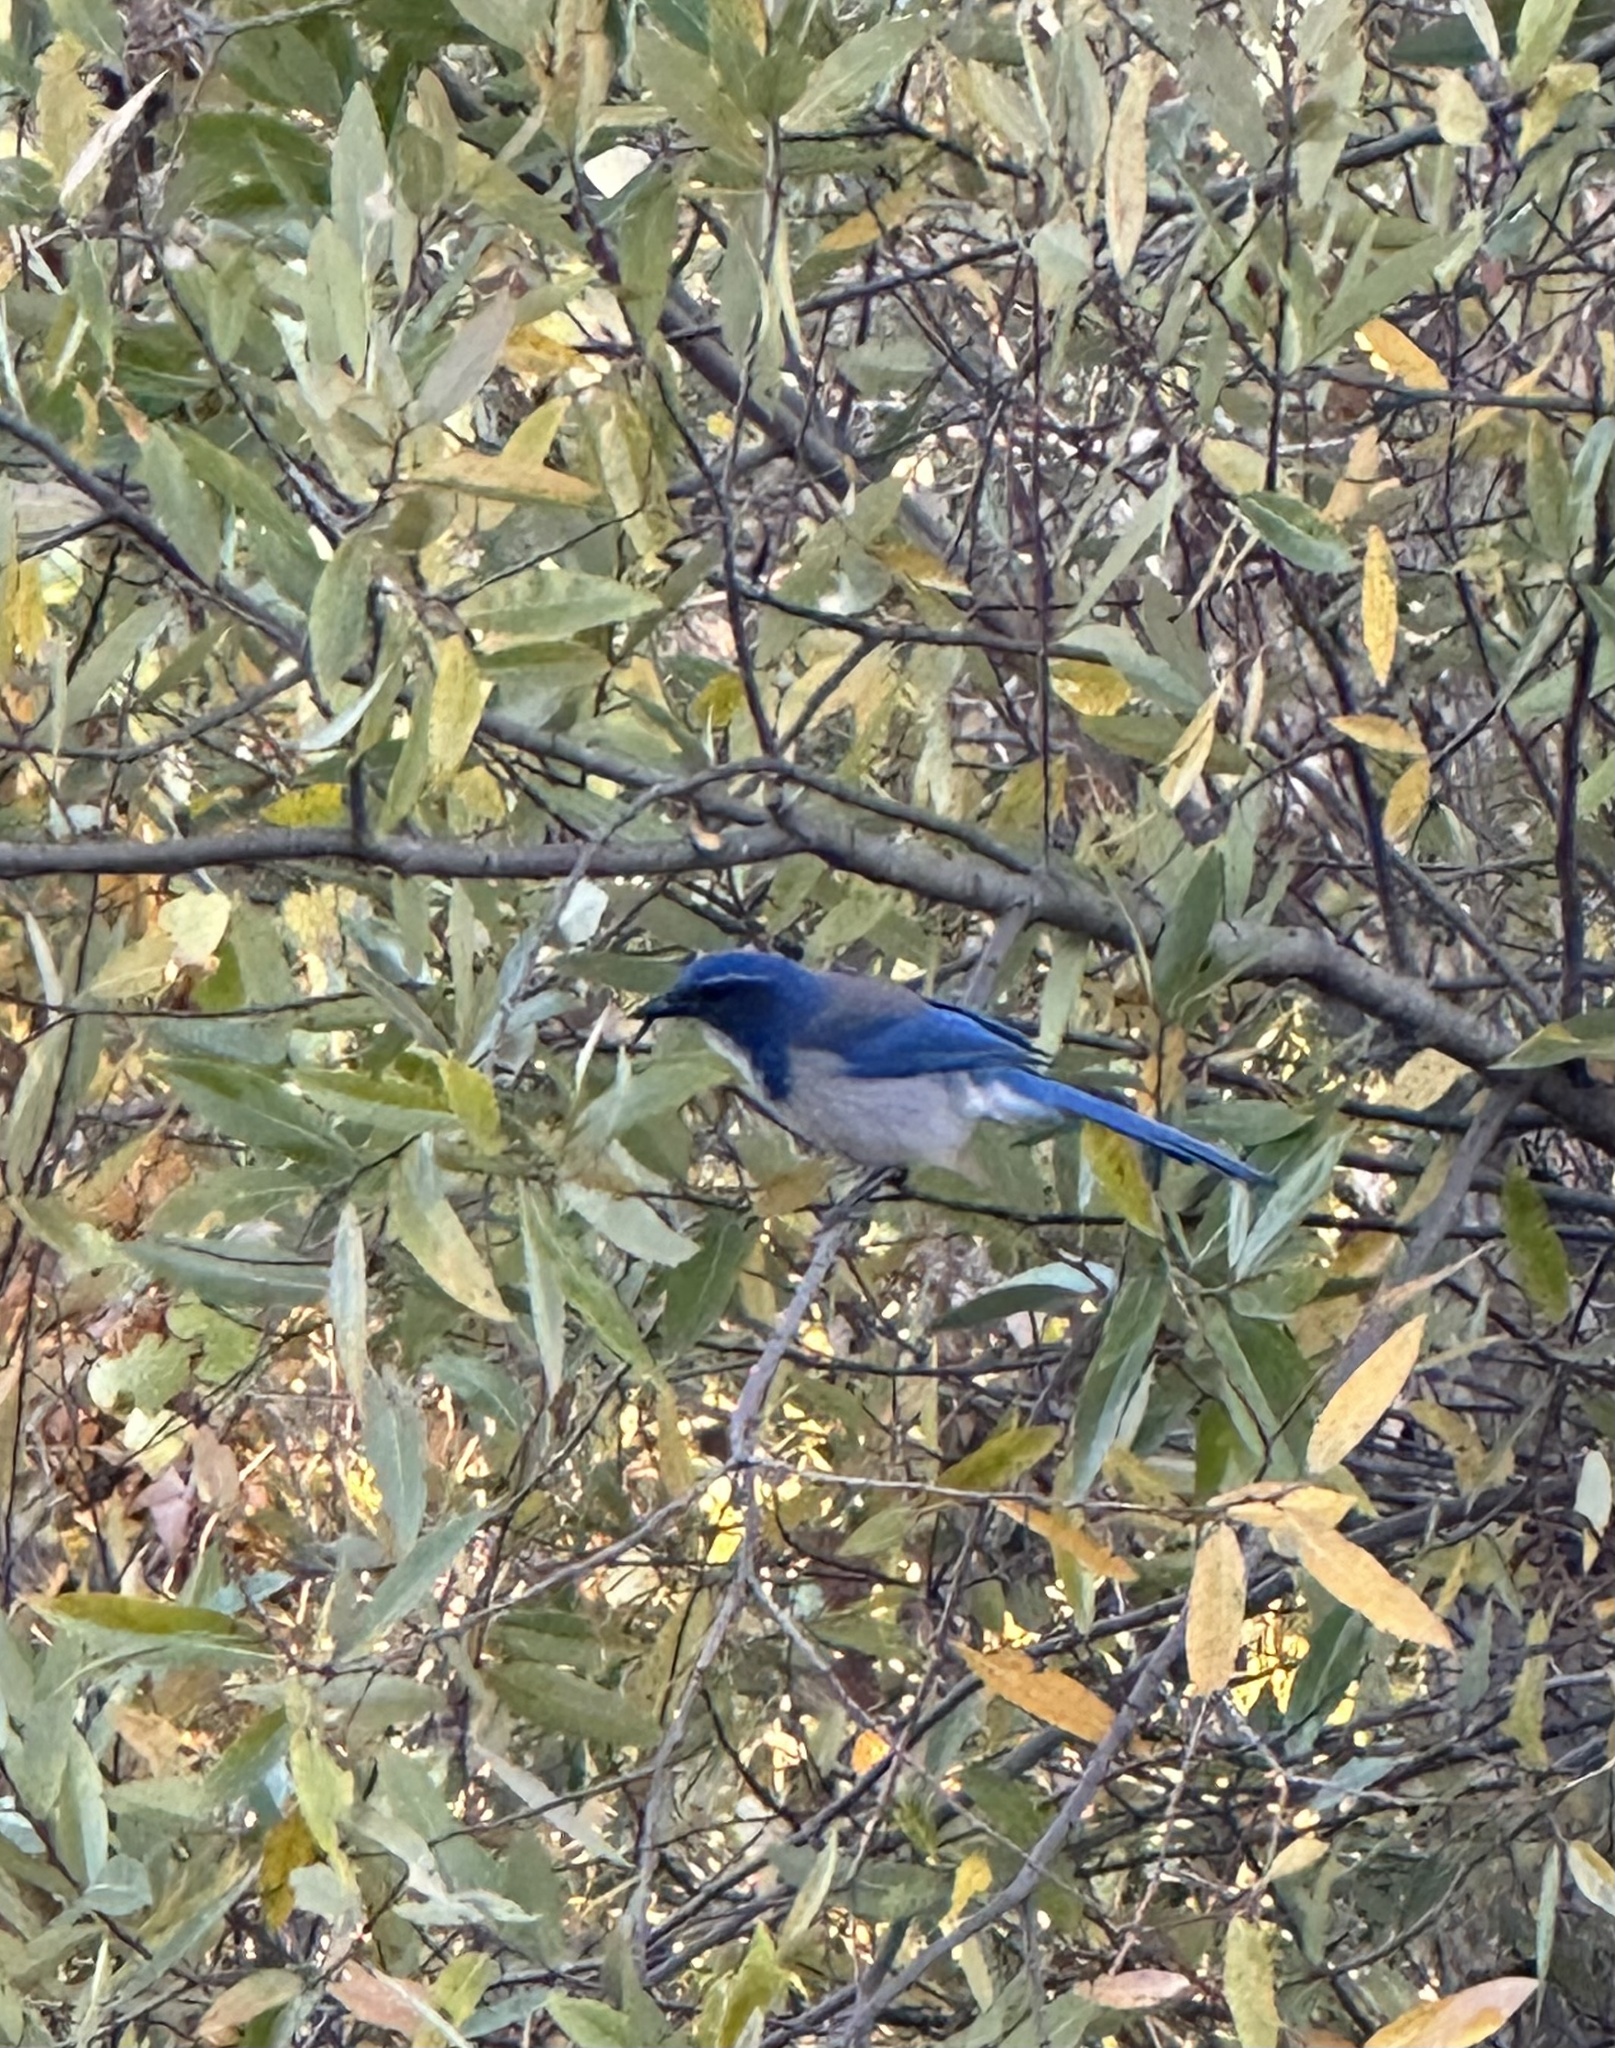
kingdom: Animalia
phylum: Chordata
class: Aves
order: Passeriformes
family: Corvidae
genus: Aphelocoma
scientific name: Aphelocoma californica
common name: California scrub-jay
